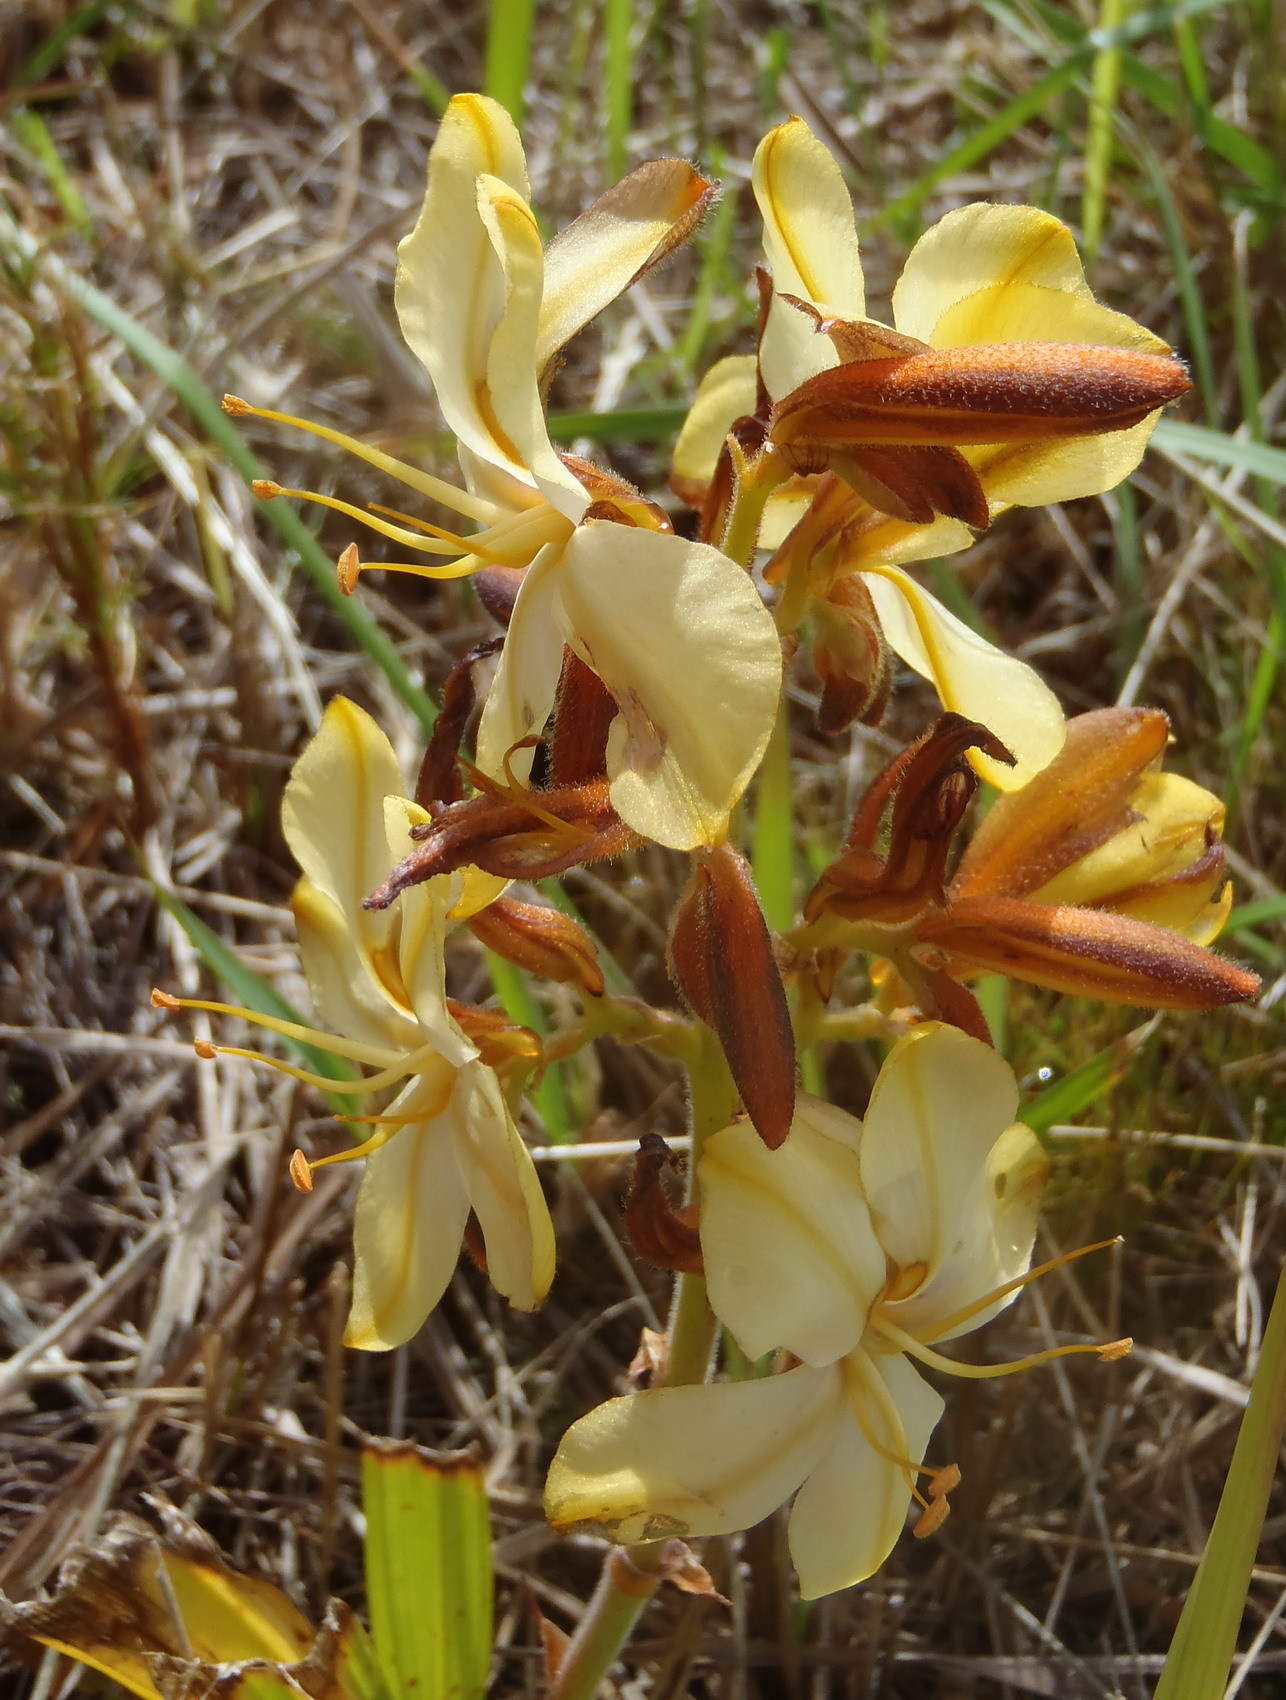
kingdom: Plantae
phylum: Tracheophyta
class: Liliopsida
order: Commelinales
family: Haemodoraceae
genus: Wachendorfia
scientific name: Wachendorfia paniculata
